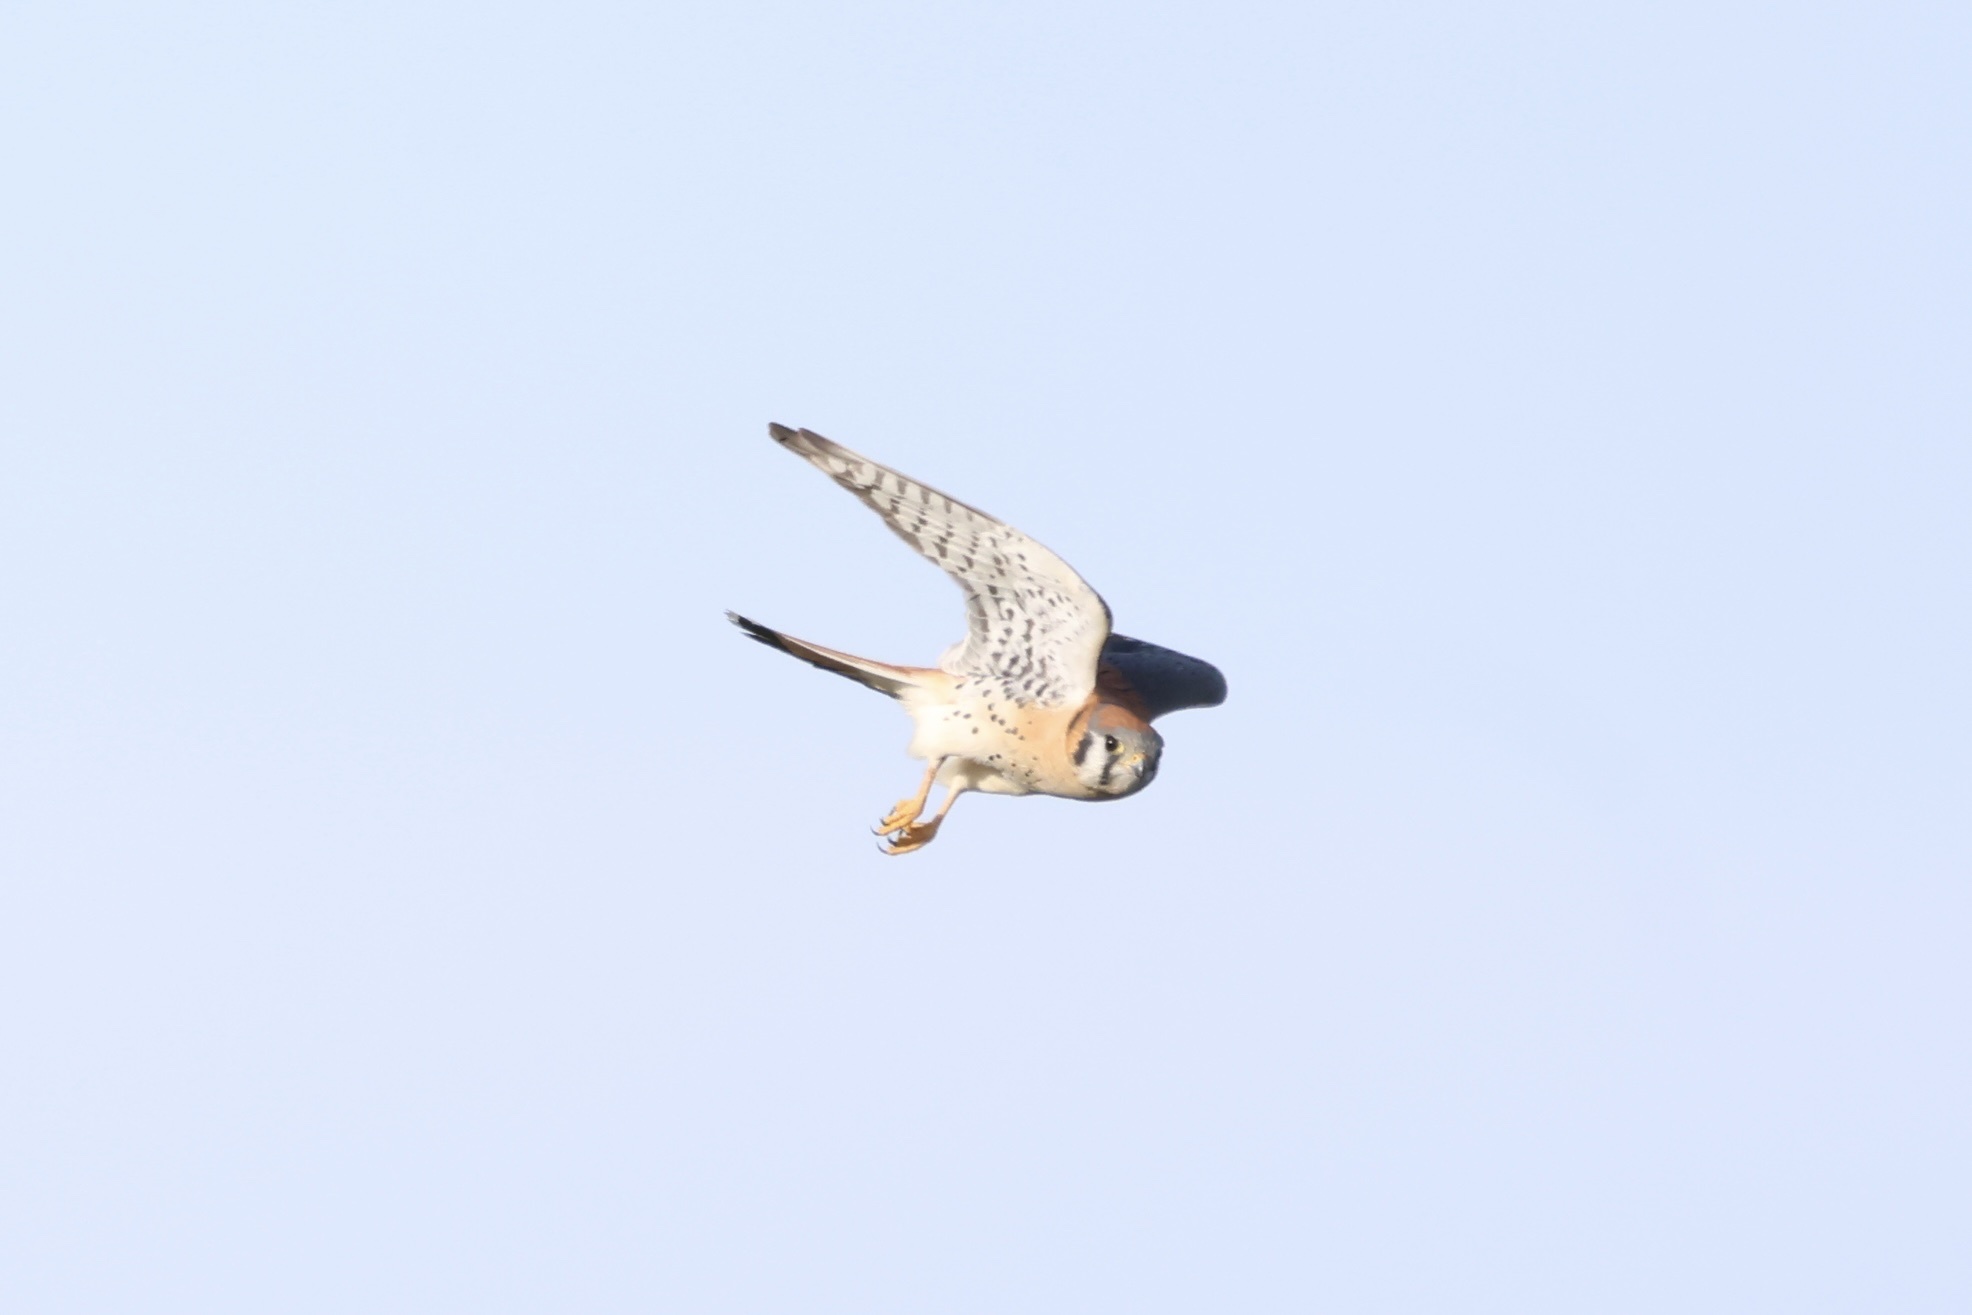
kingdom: Animalia
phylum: Chordata
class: Aves
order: Falconiformes
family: Falconidae
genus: Falco
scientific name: Falco sparverius
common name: American kestrel
